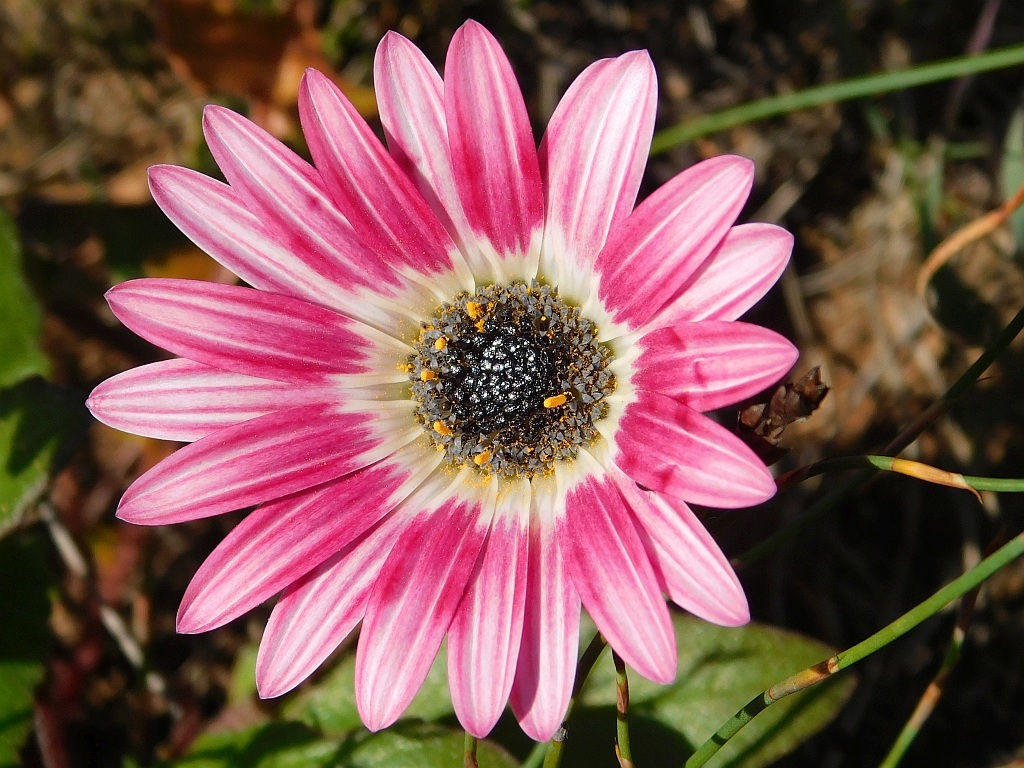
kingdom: Plantae
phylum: Tracheophyta
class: Magnoliopsida
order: Asterales
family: Asteraceae
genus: Arctotis
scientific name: Arctotis acaulis
